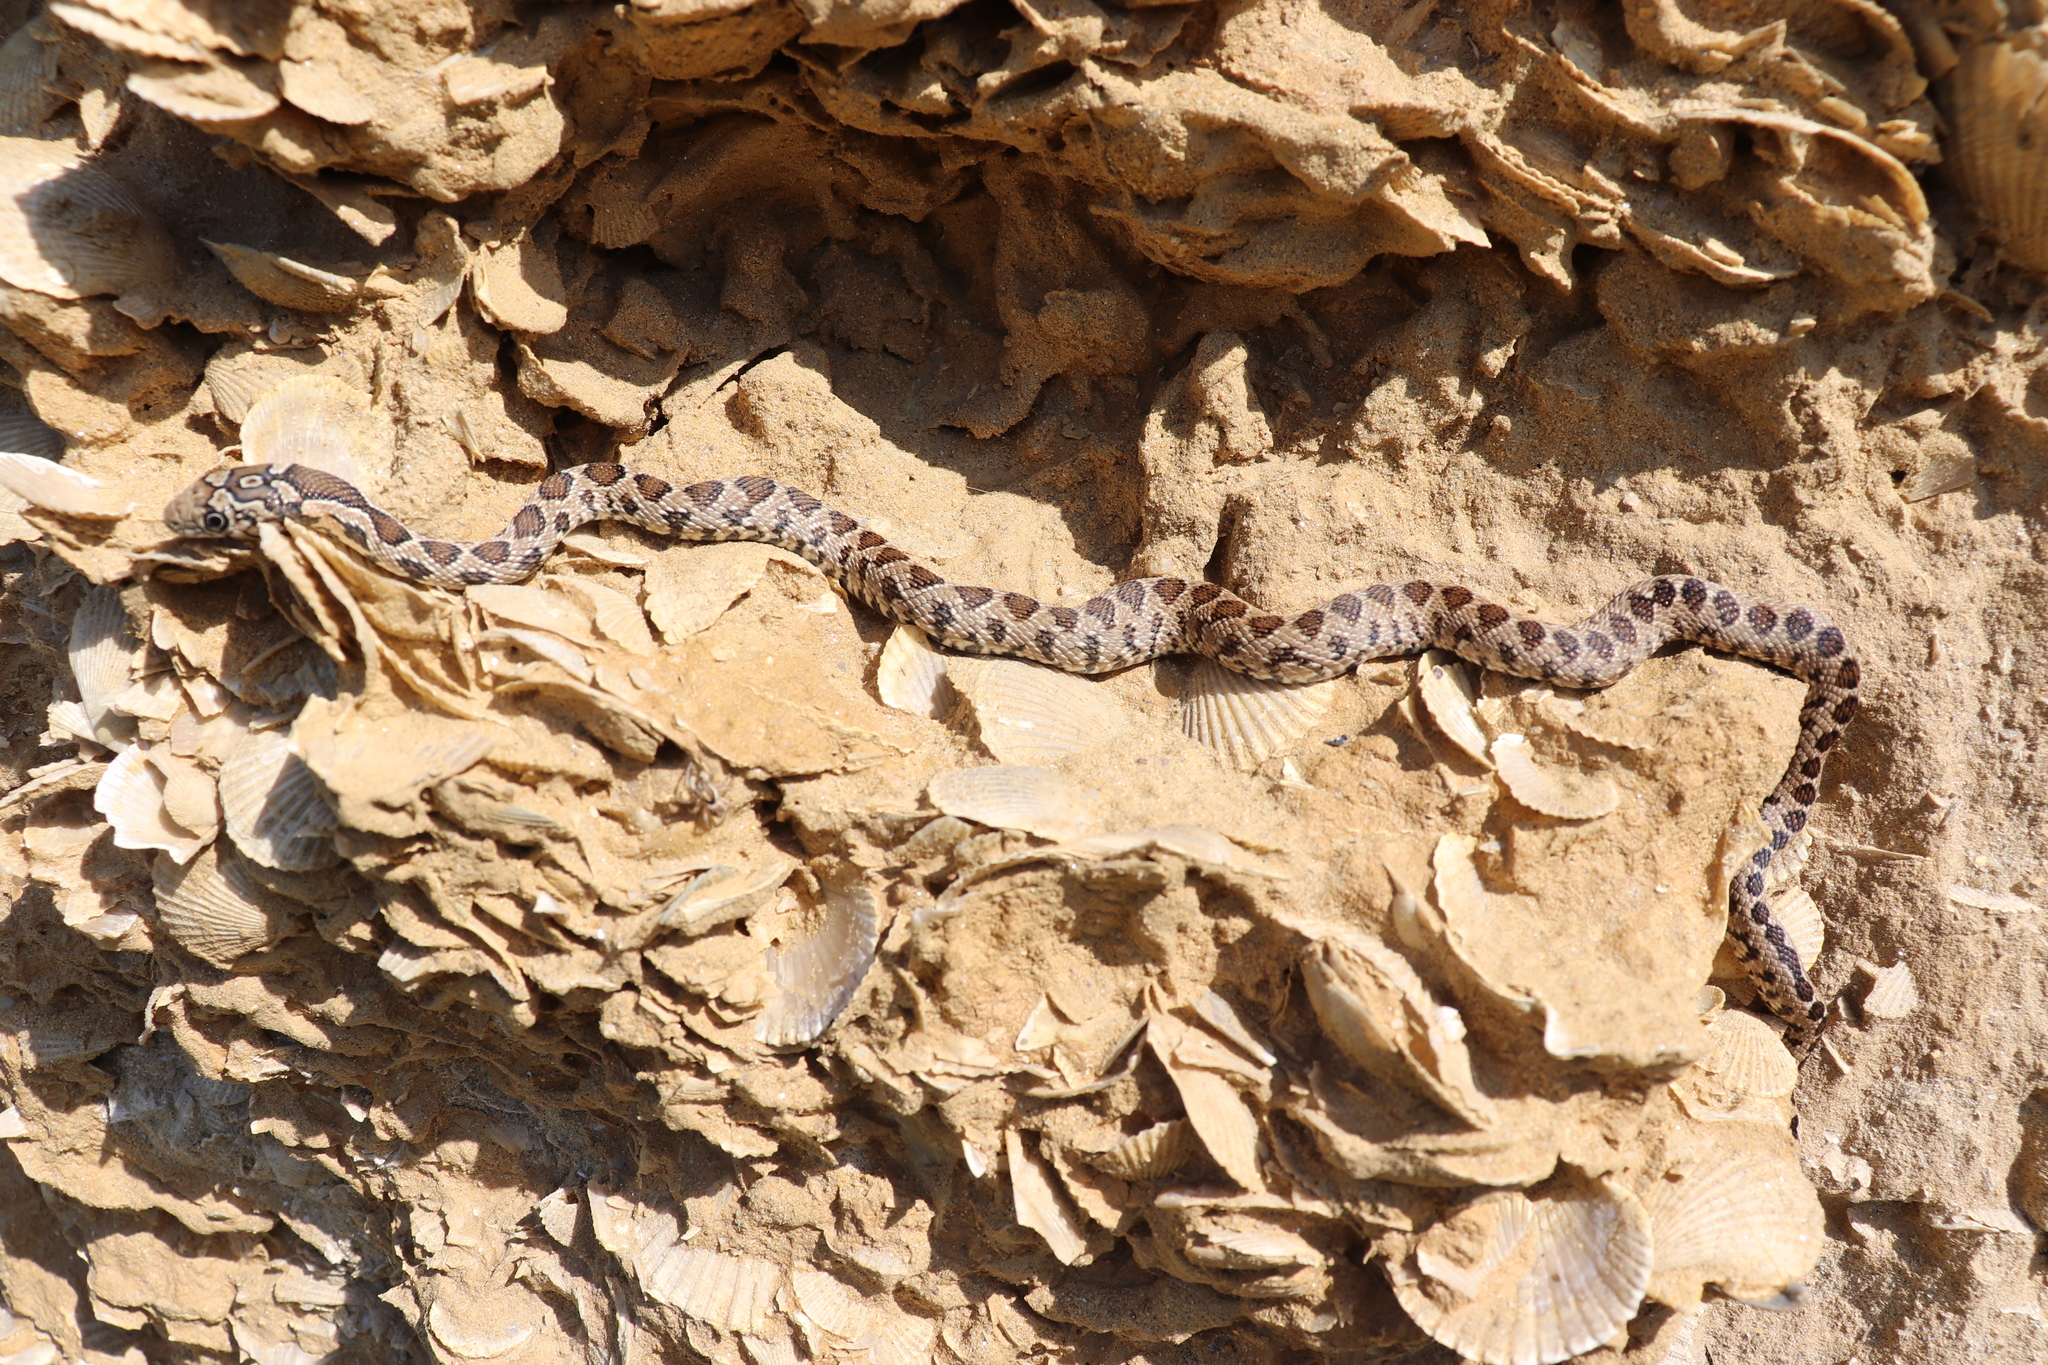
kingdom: Animalia
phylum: Chordata
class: Squamata
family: Colubridae
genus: Hemorrhois
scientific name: Hemorrhois hippocrepis
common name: Horseshoe whip snake
